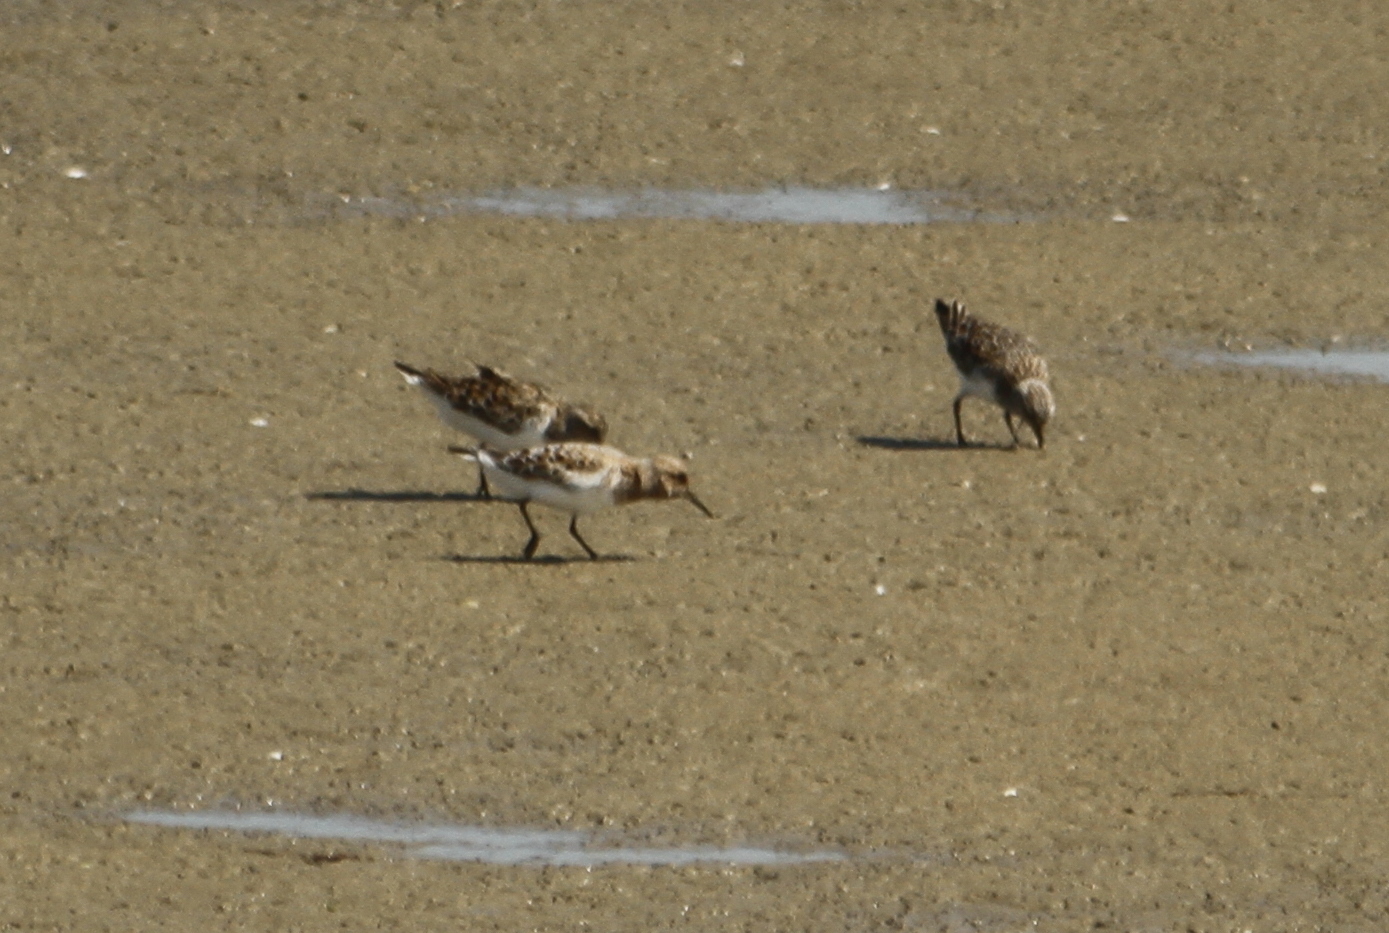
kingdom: Animalia
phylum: Chordata
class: Aves
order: Charadriiformes
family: Scolopacidae
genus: Calidris
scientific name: Calidris minuta
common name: Little stint
